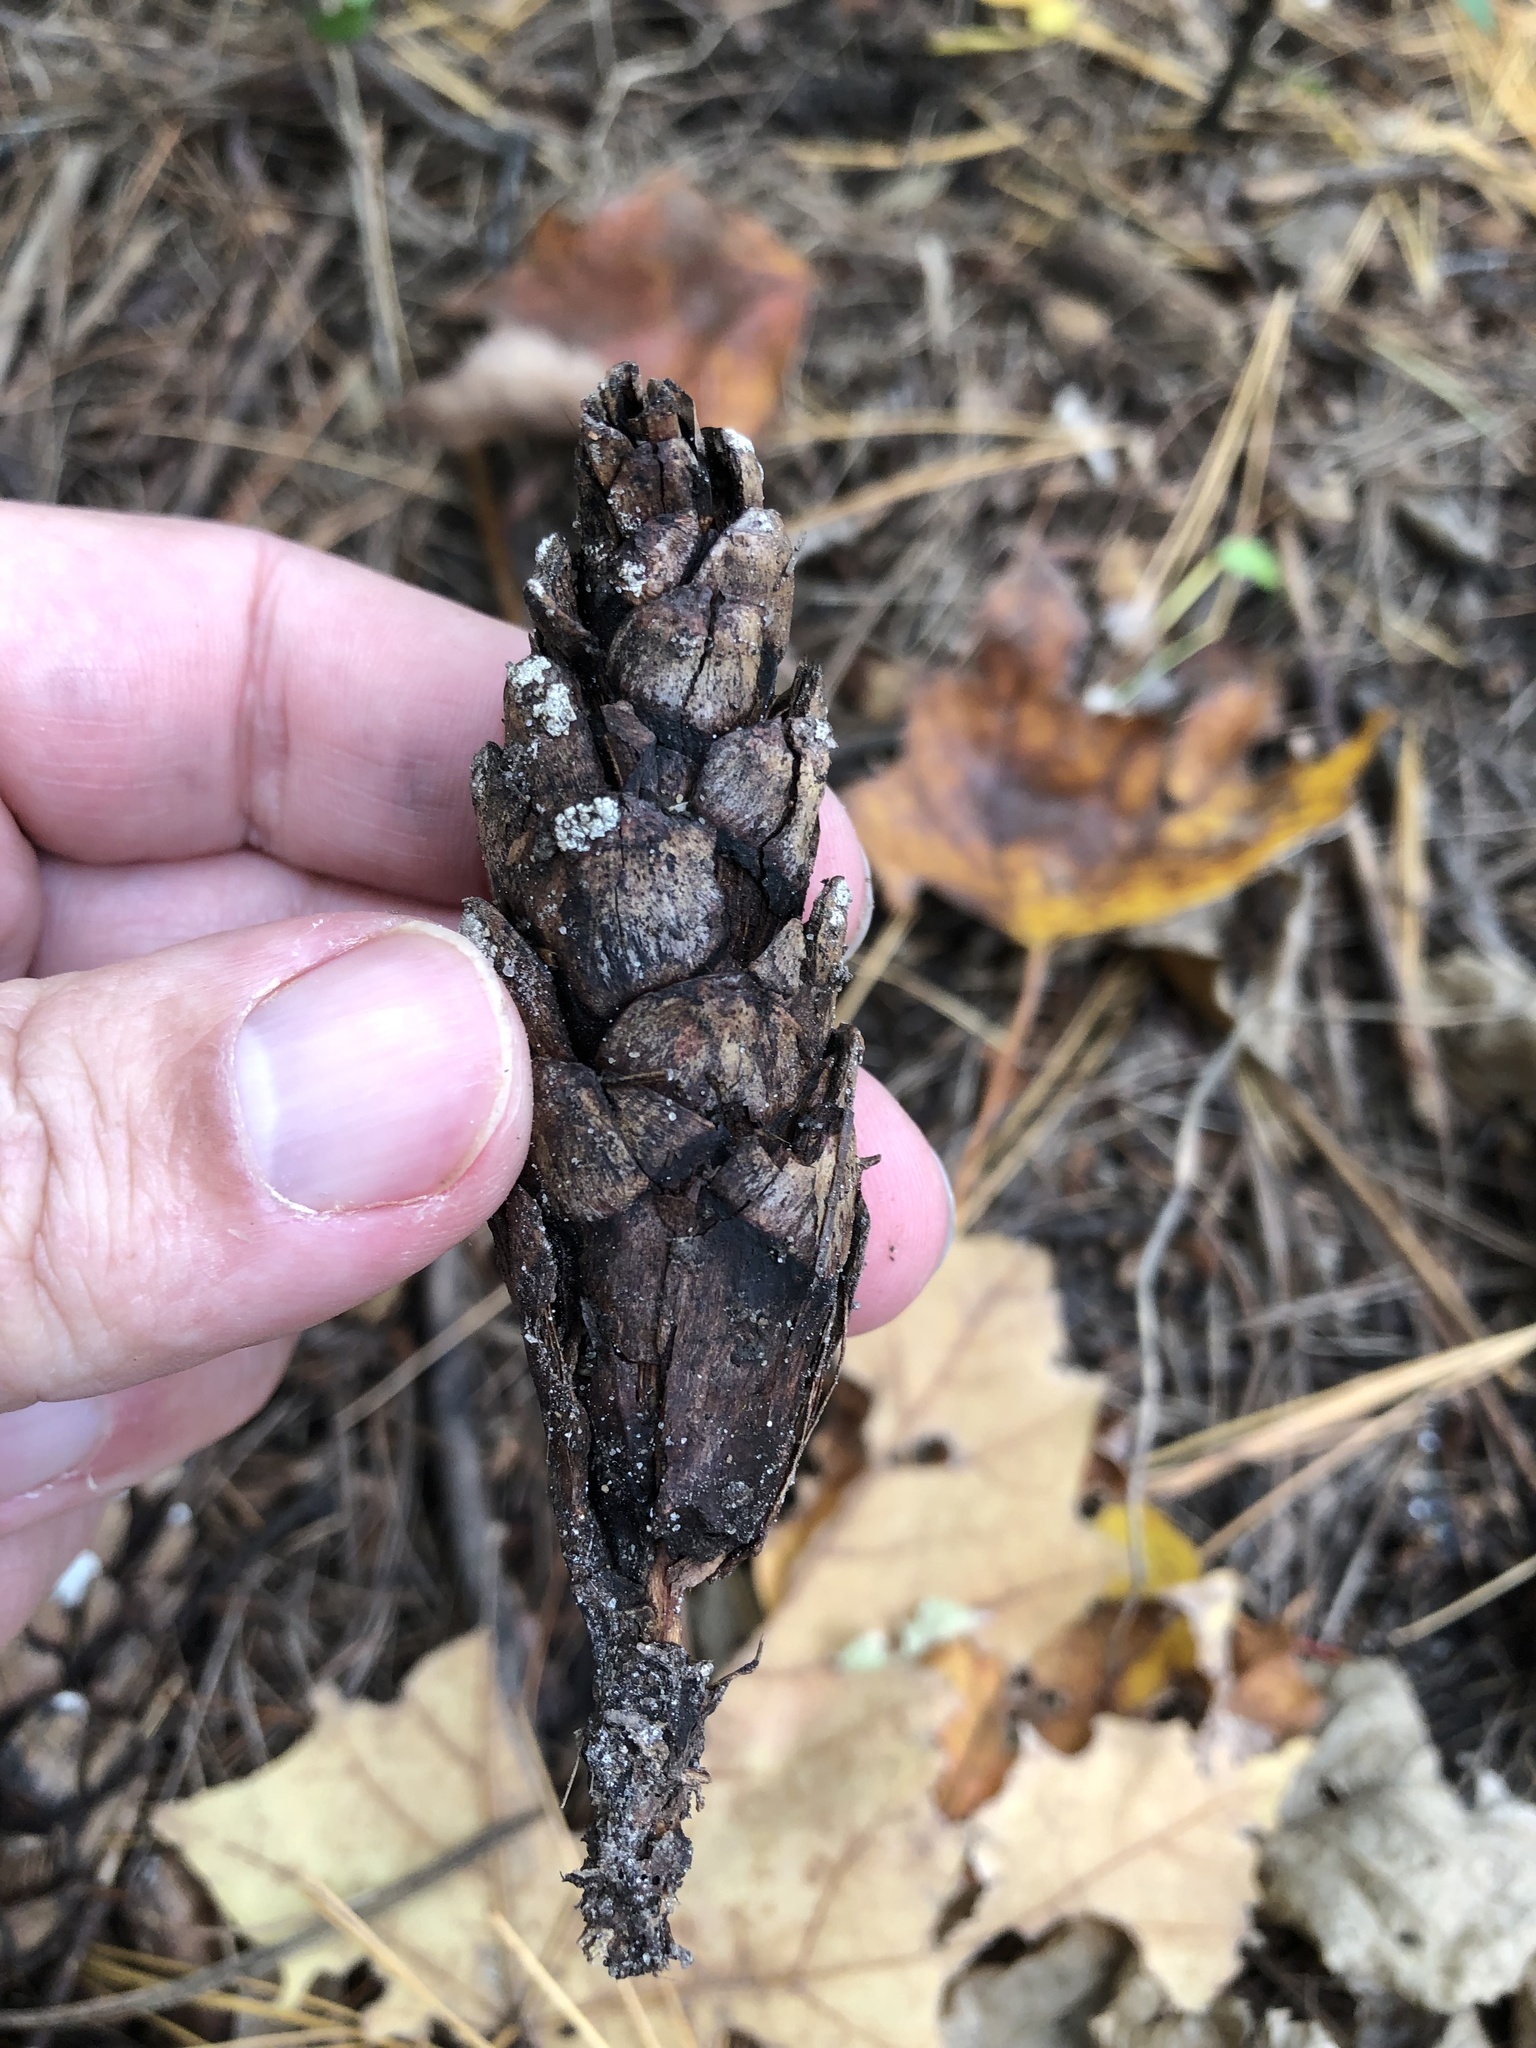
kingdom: Plantae
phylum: Tracheophyta
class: Pinopsida
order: Pinales
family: Pinaceae
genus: Pinus
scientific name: Pinus strobus
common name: Weymouth pine
